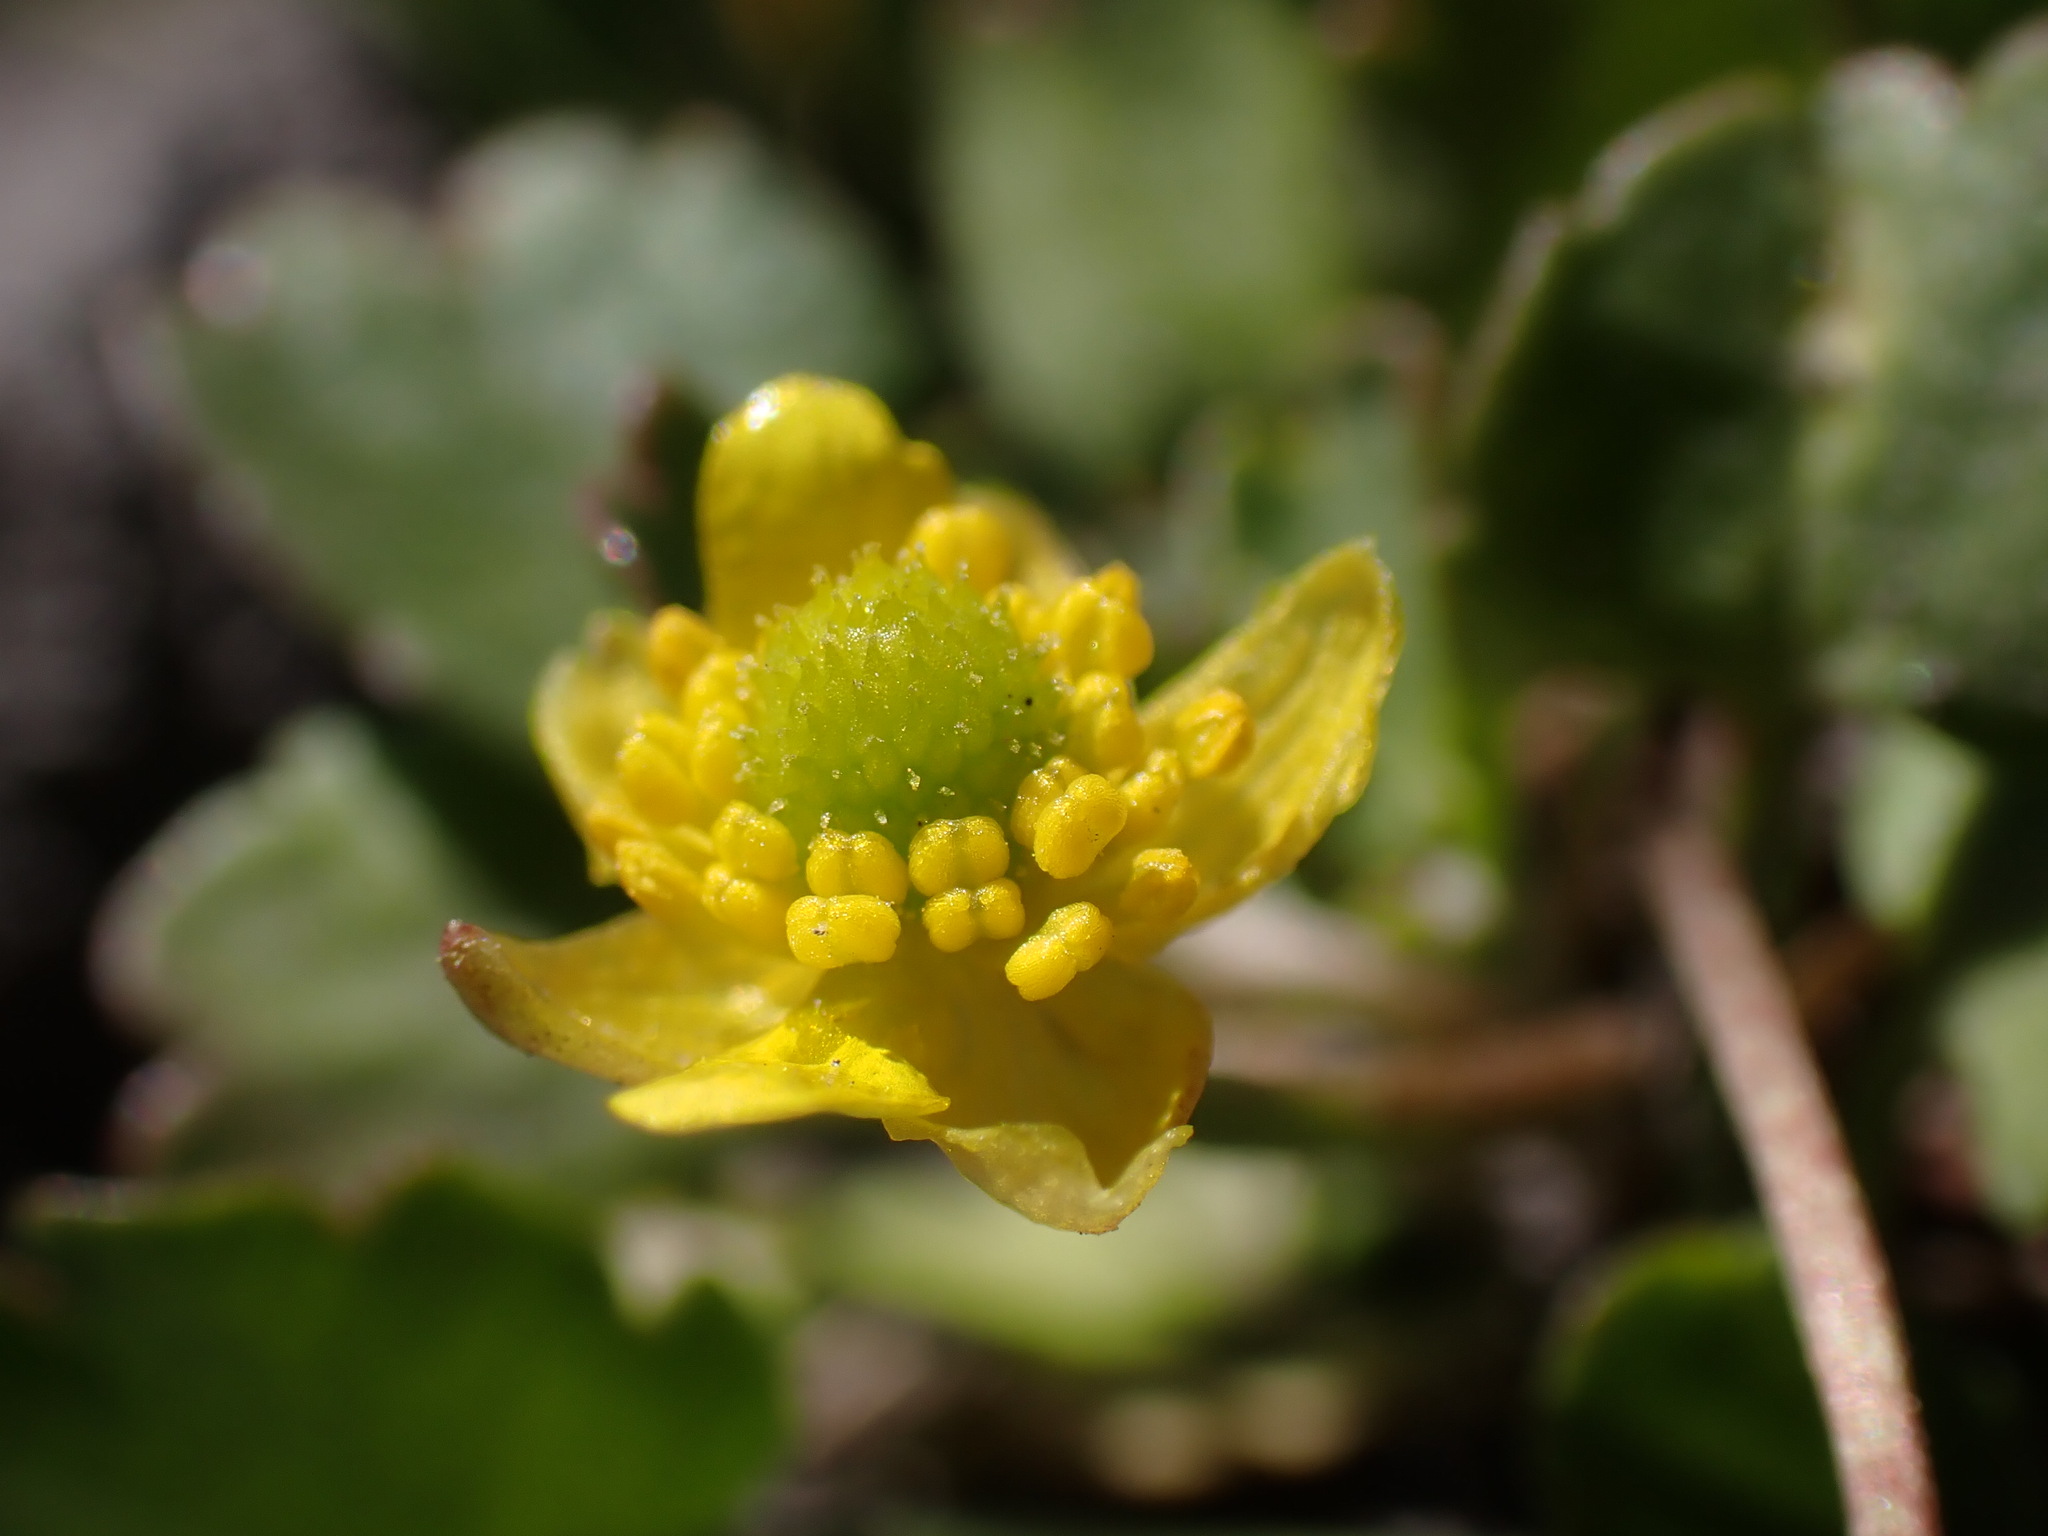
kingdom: Plantae
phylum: Tracheophyta
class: Magnoliopsida
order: Ranunculales
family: Ranunculaceae
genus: Halerpestes
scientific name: Halerpestes cymbalaria
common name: Seaside crowfoot
